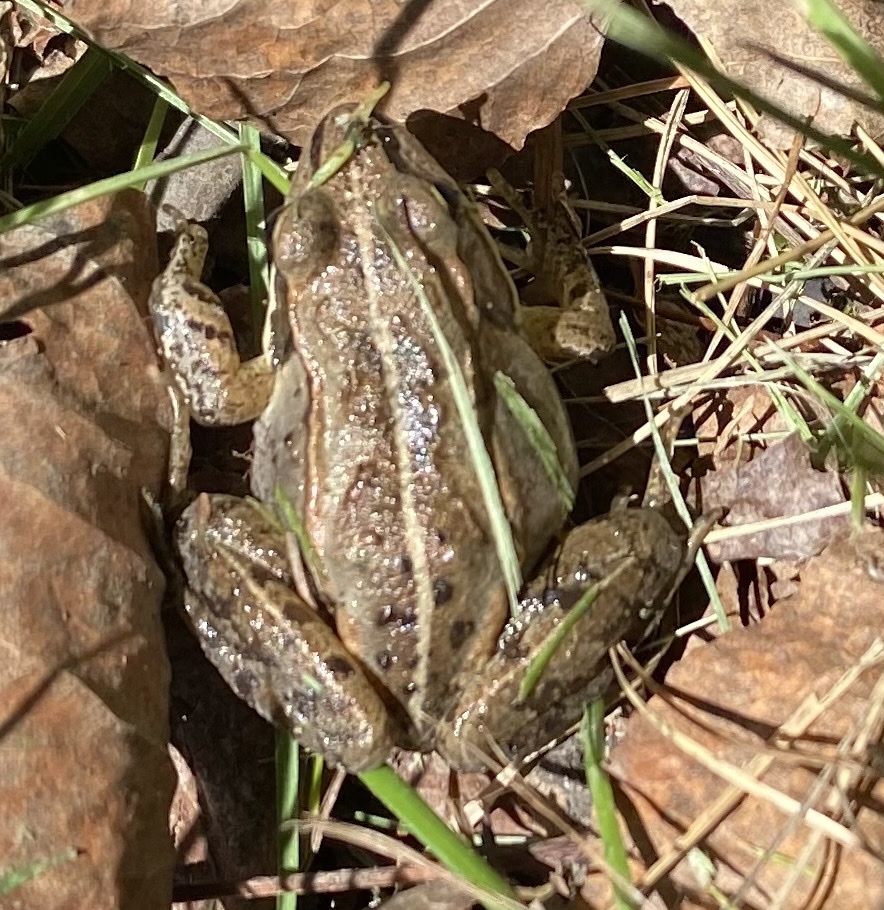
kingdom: Animalia
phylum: Chordata
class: Amphibia
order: Anura
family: Ranidae
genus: Lithobates
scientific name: Lithobates sylvaticus
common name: Wood frog
